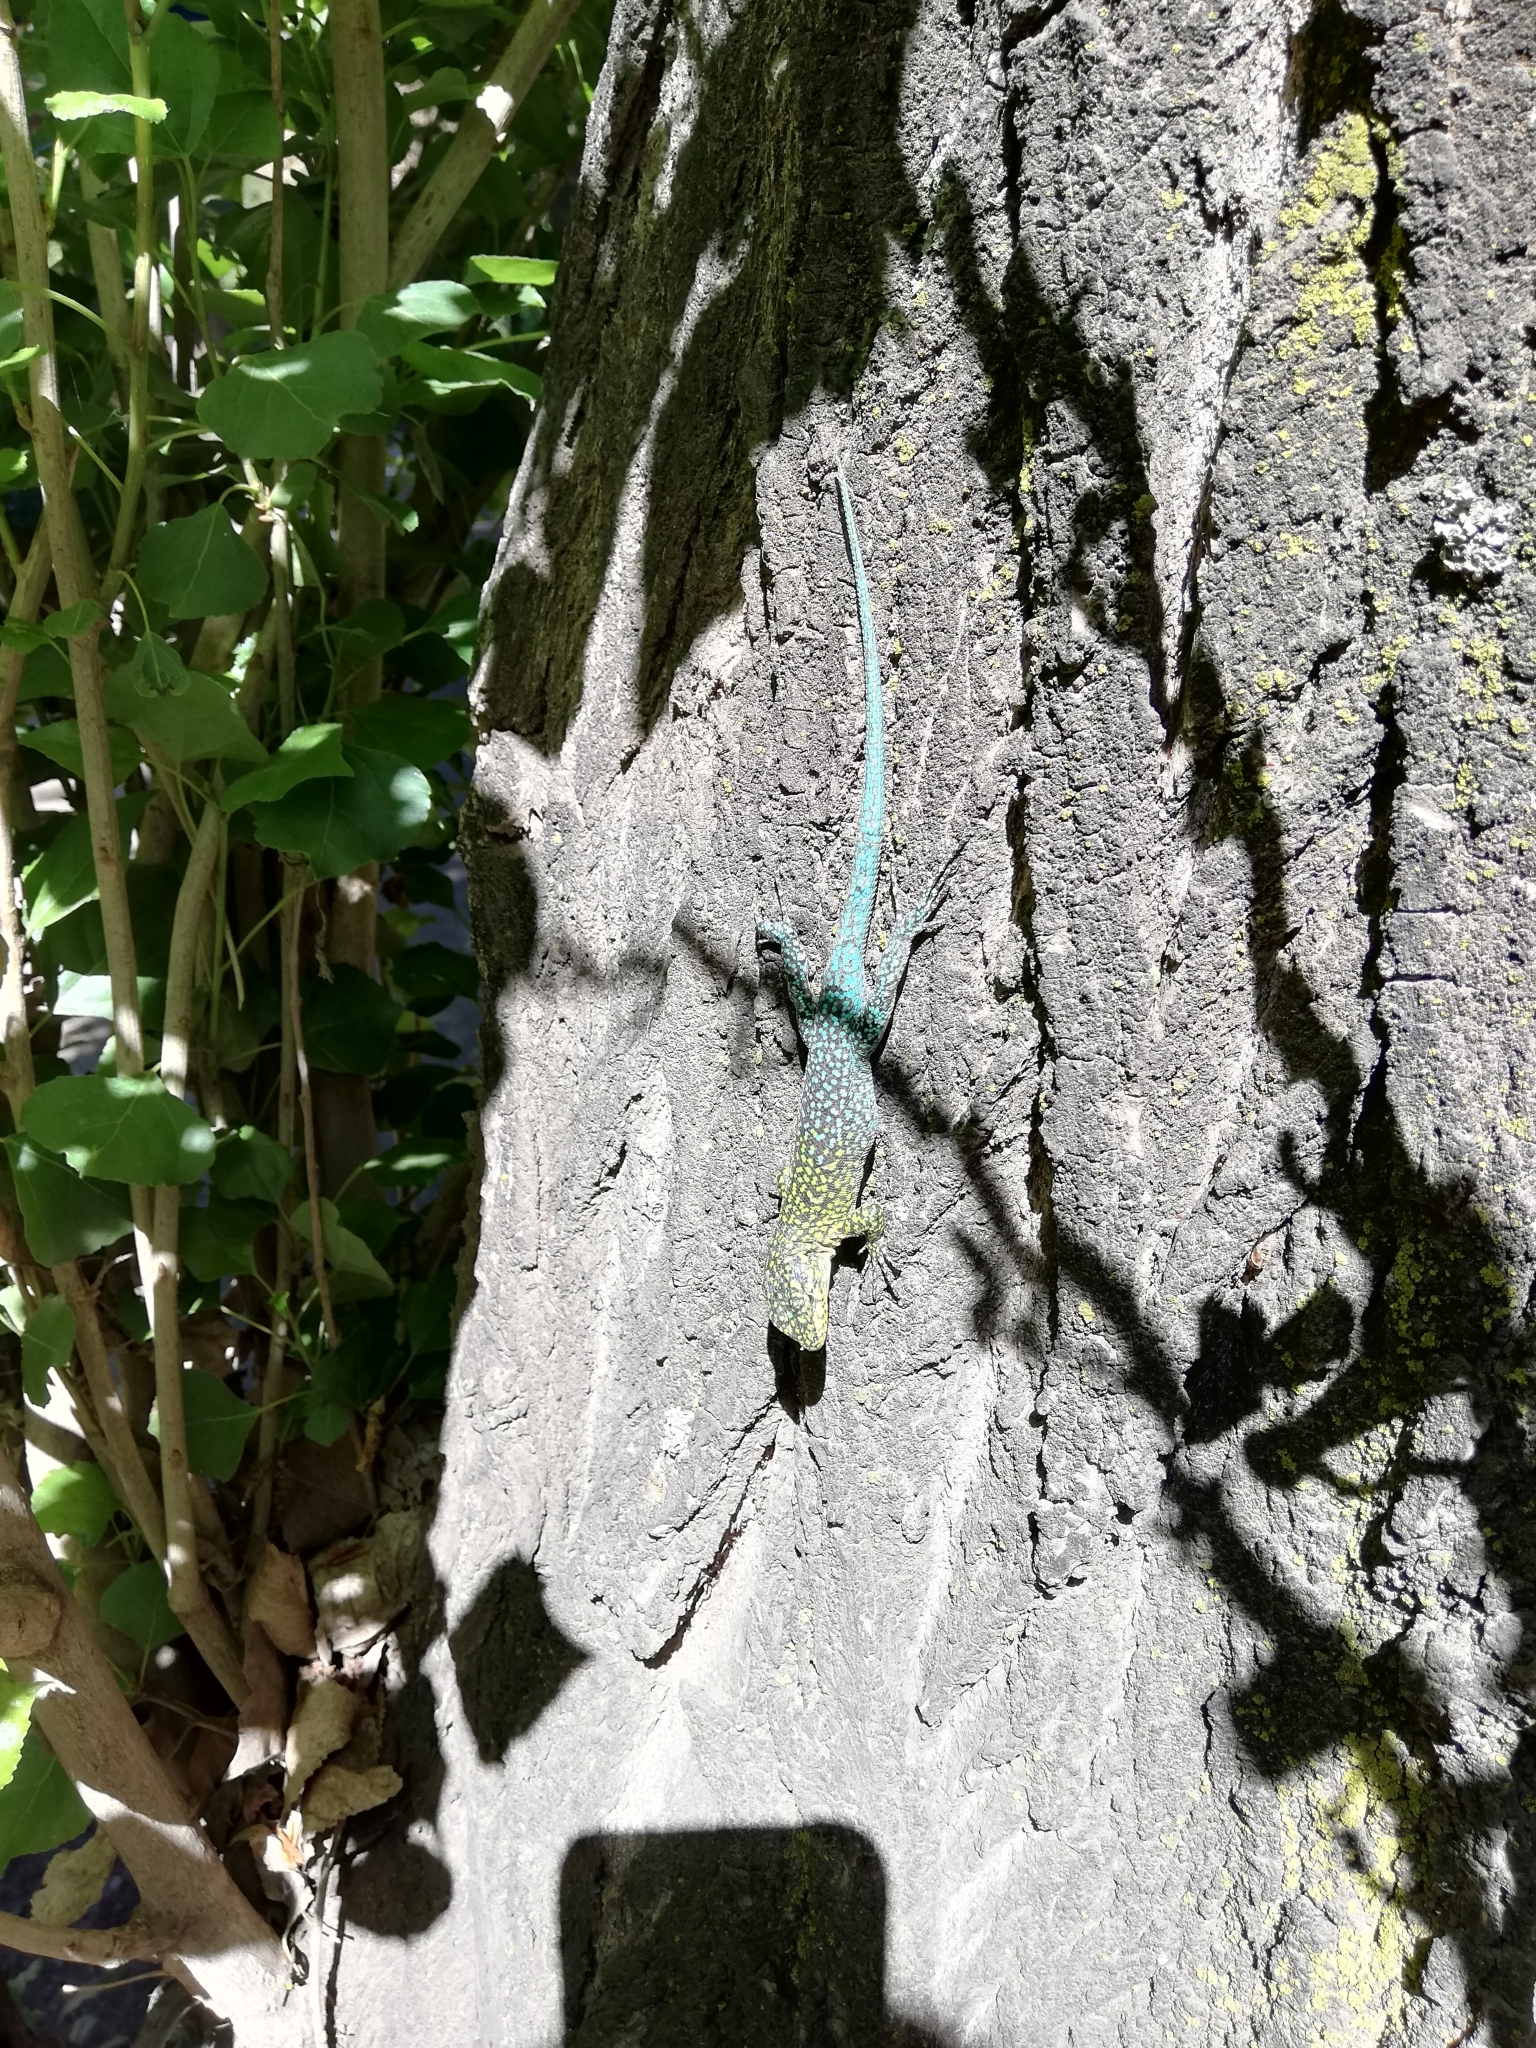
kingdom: Animalia
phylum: Chordata
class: Squamata
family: Liolaemidae
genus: Liolaemus
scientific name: Liolaemus tenuis
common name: Thin tree iguana
